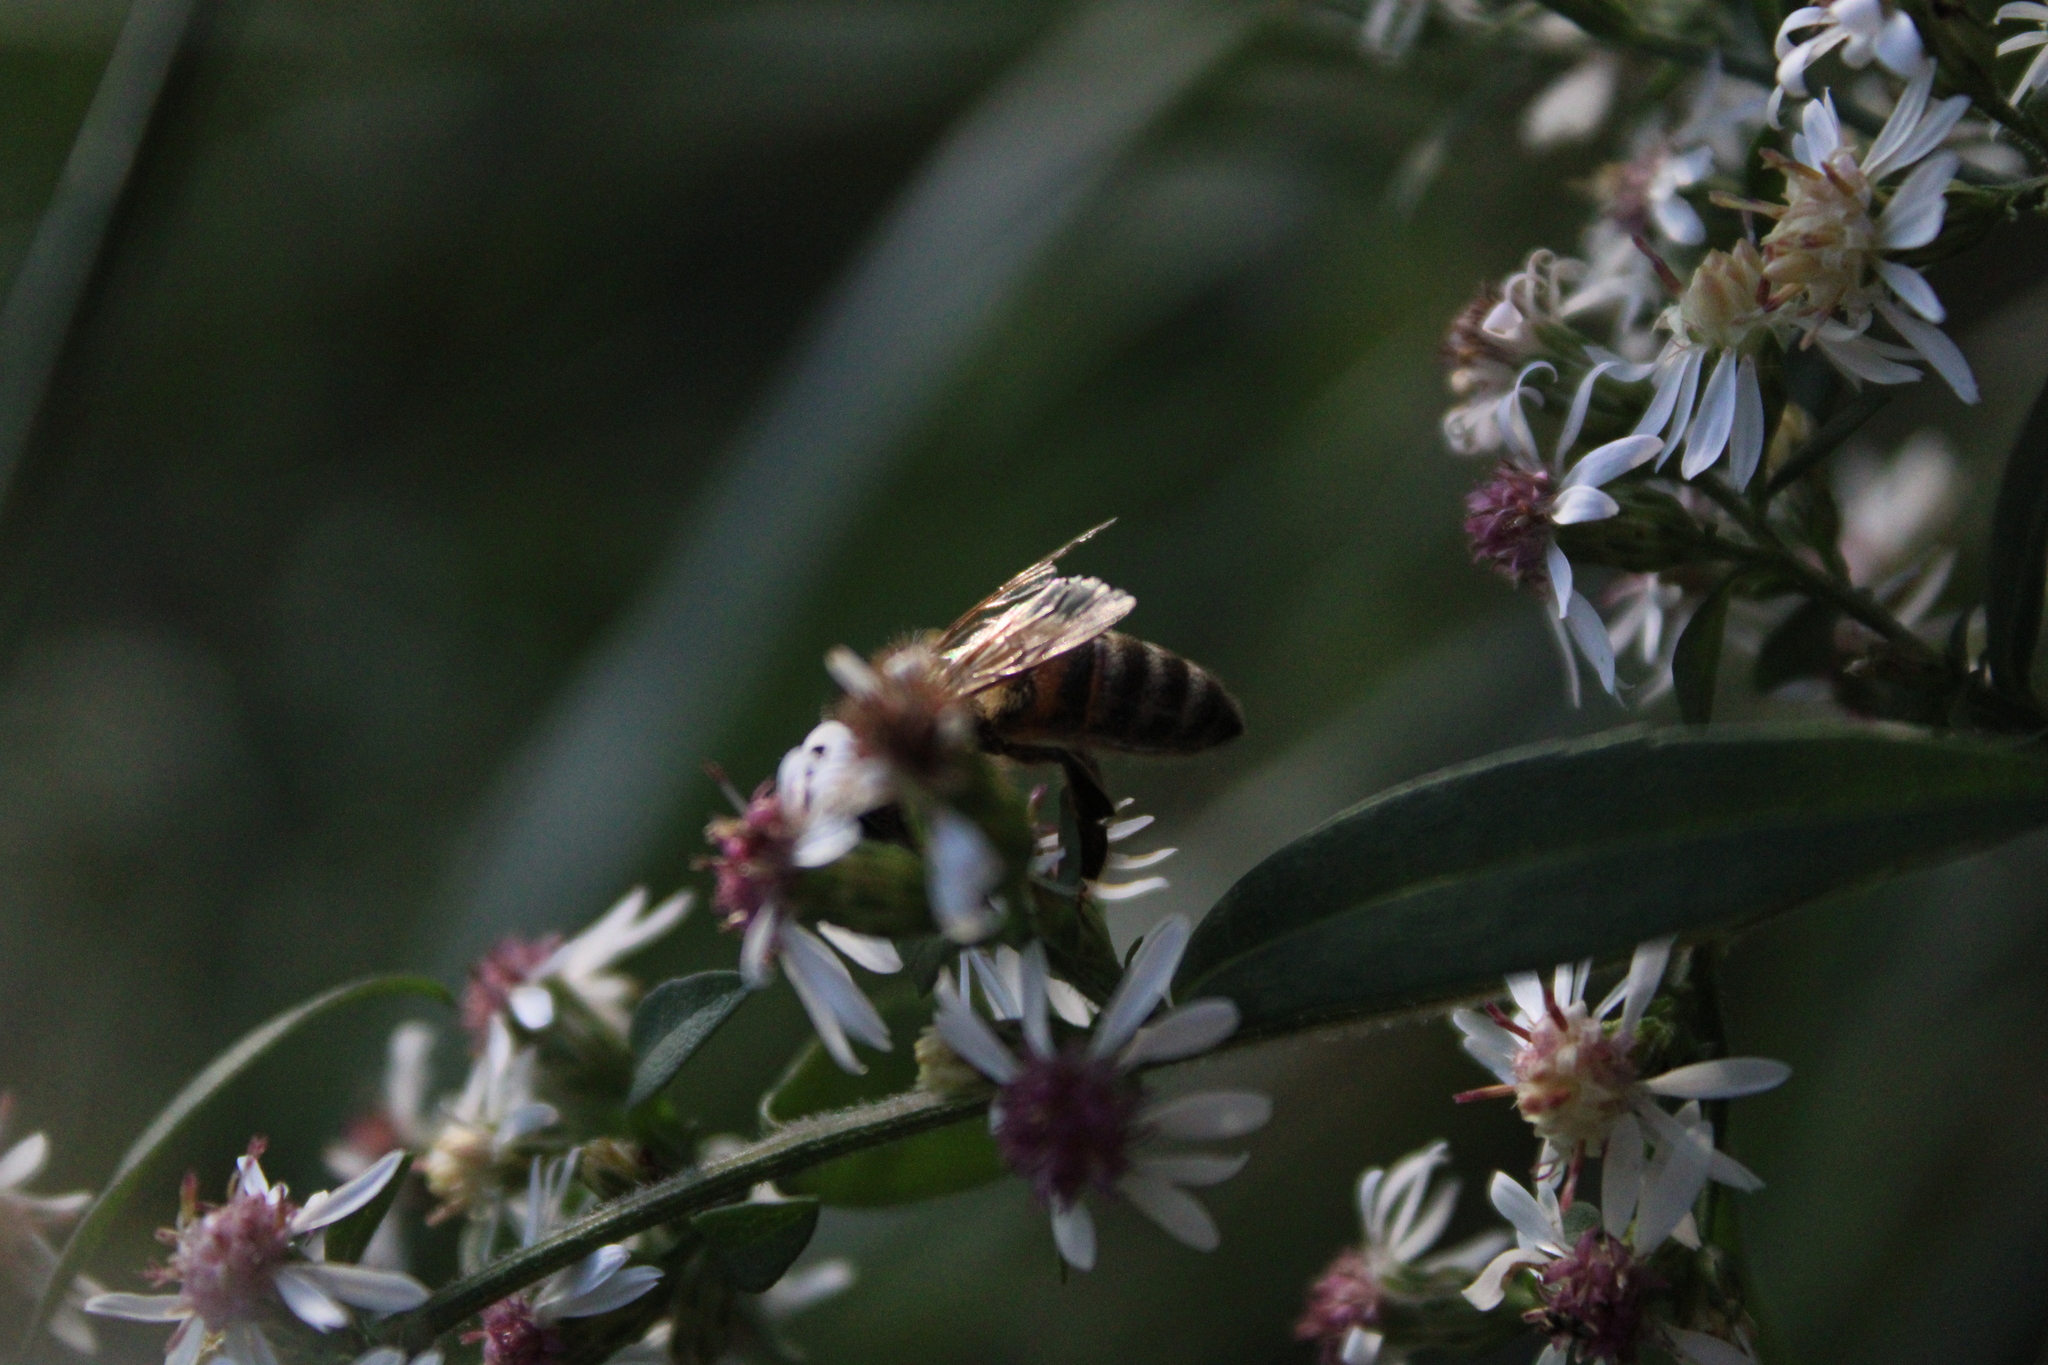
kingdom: Animalia
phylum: Arthropoda
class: Insecta
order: Hymenoptera
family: Apidae
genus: Apis
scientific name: Apis mellifera
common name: Honey bee
